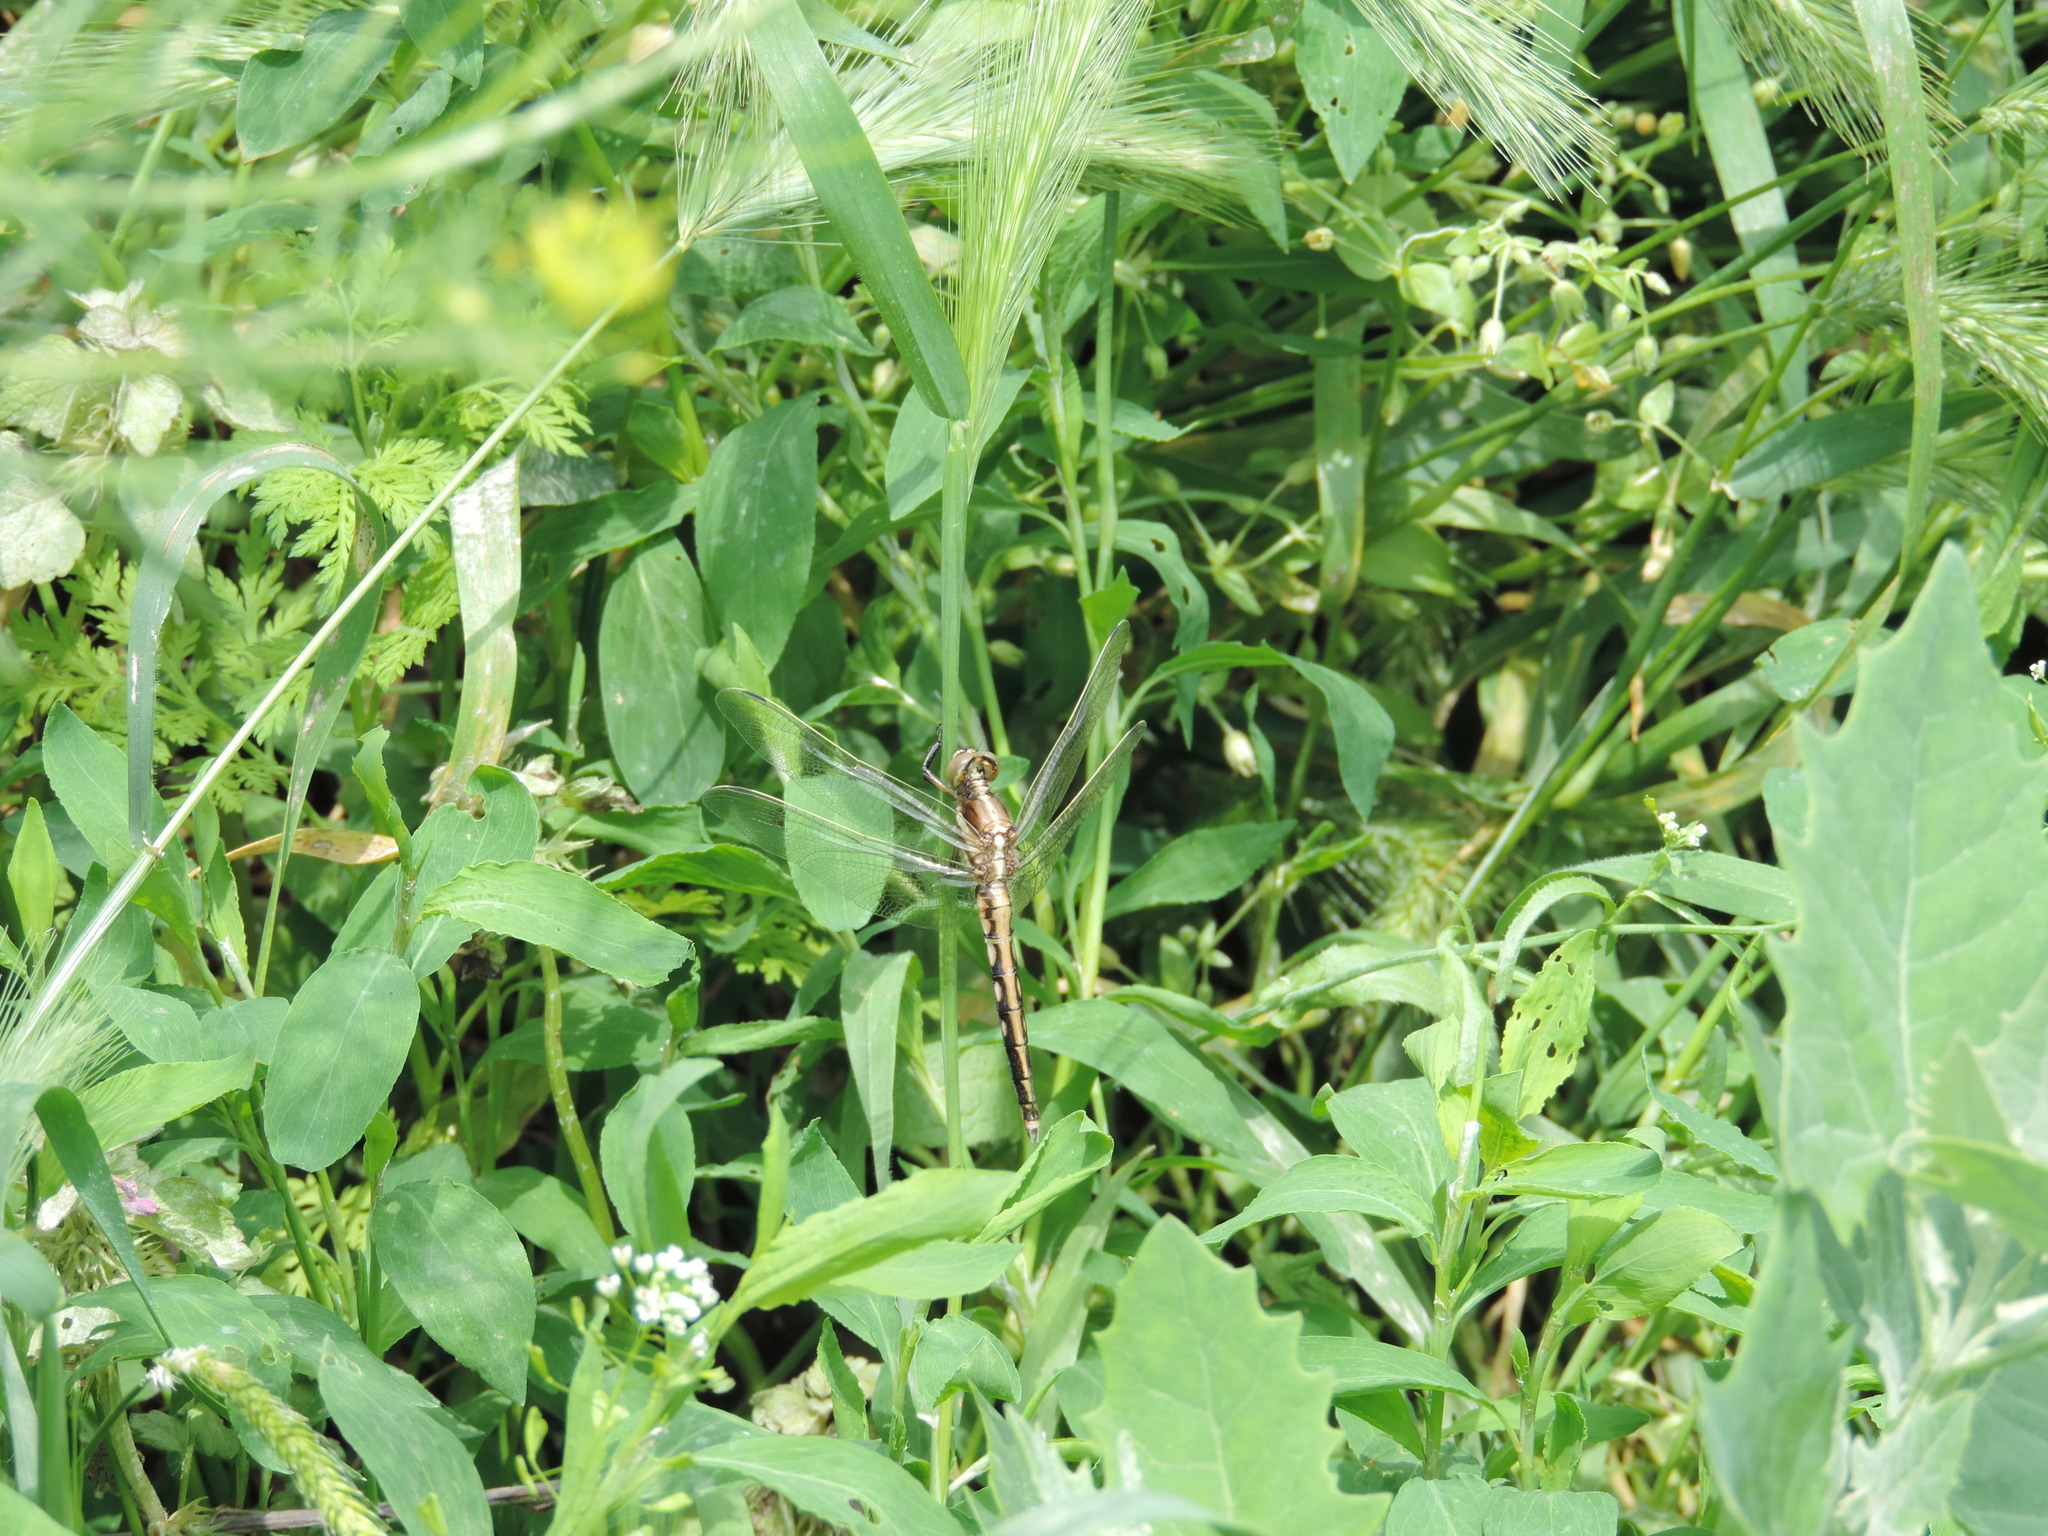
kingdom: Animalia
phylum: Arthropoda
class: Insecta
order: Odonata
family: Libellulidae
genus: Orthetrum
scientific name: Orthetrum albistylum
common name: White-tailed skimmer
